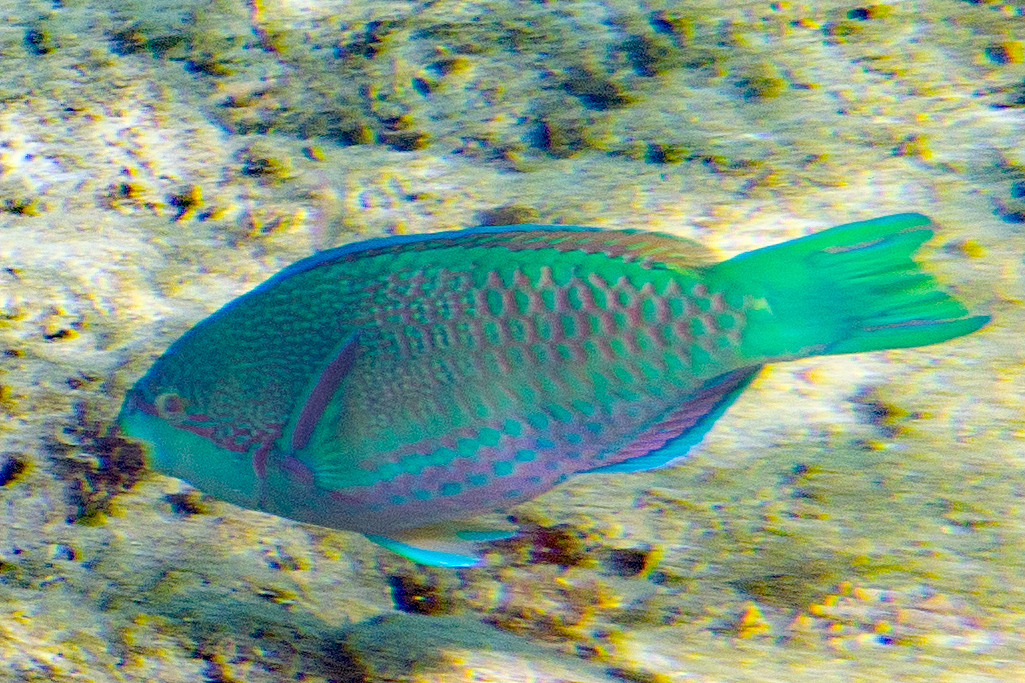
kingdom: Animalia
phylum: Chordata
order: Perciformes
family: Scaridae
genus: Scarus
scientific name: Scarus globiceps
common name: Globehead parrotfish
